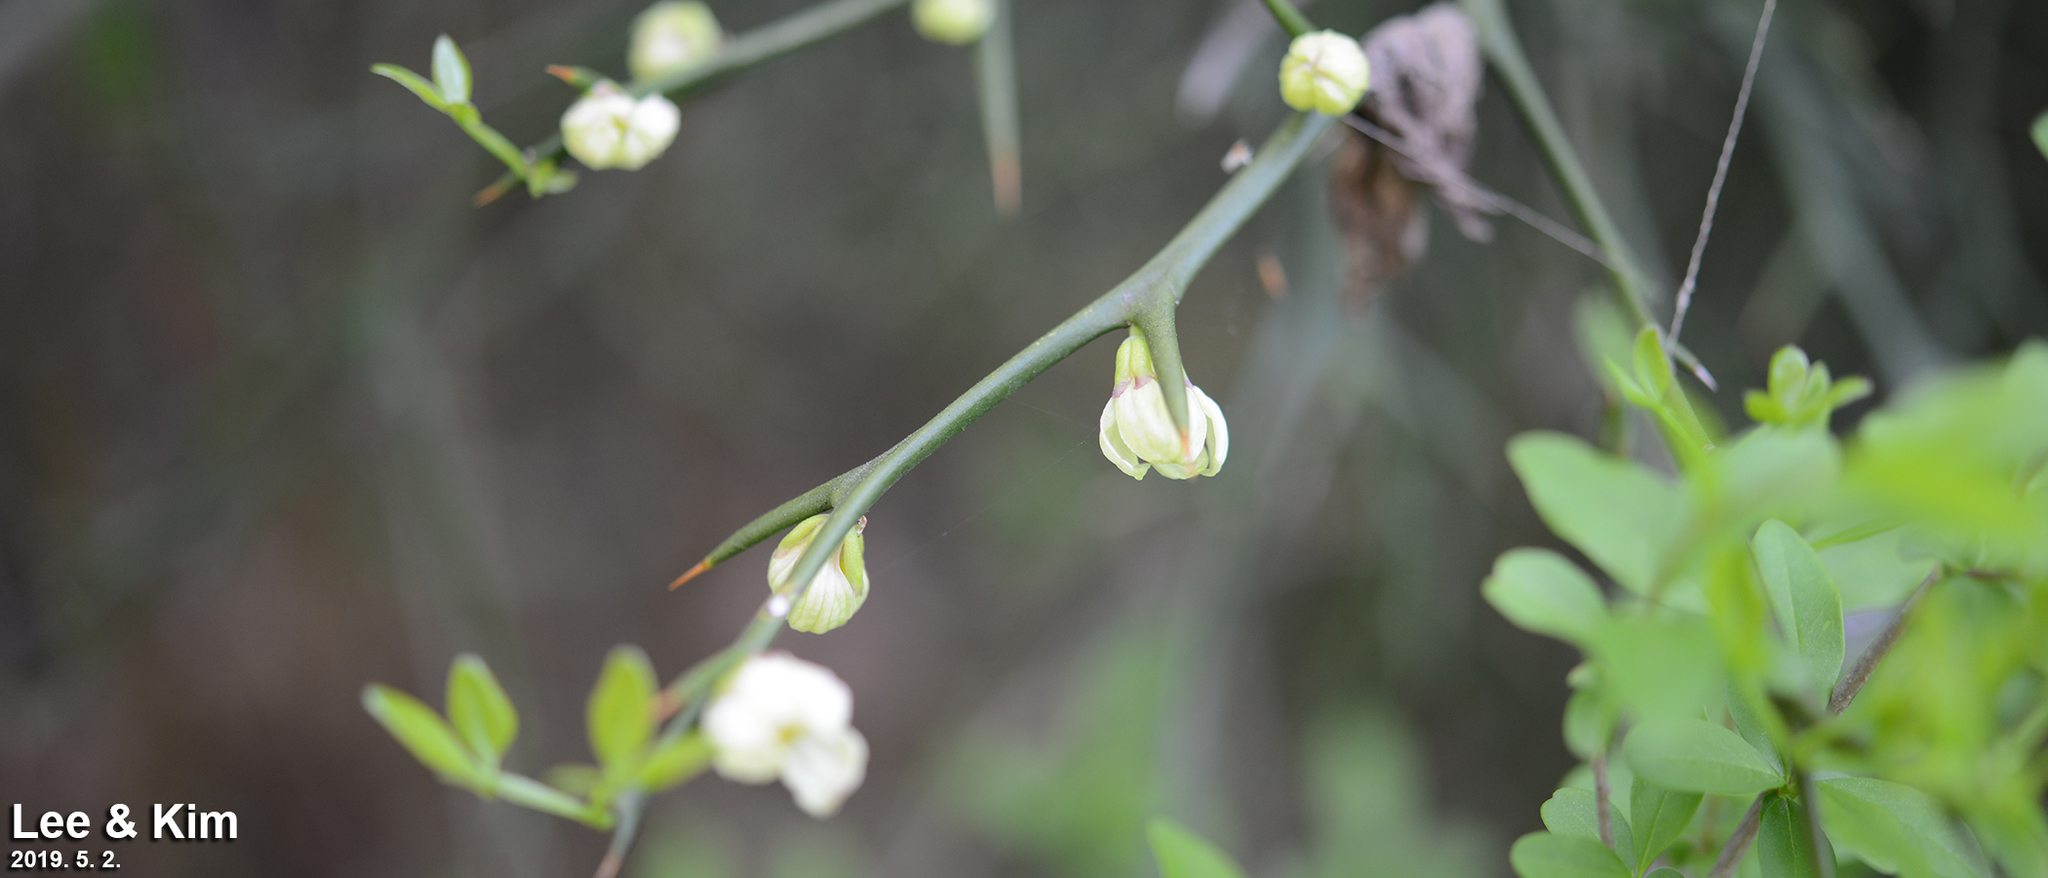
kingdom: Plantae
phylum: Tracheophyta
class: Magnoliopsida
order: Sapindales
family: Rutaceae
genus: Citrus
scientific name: Citrus trifoliata
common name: Japanese bitter-orange
